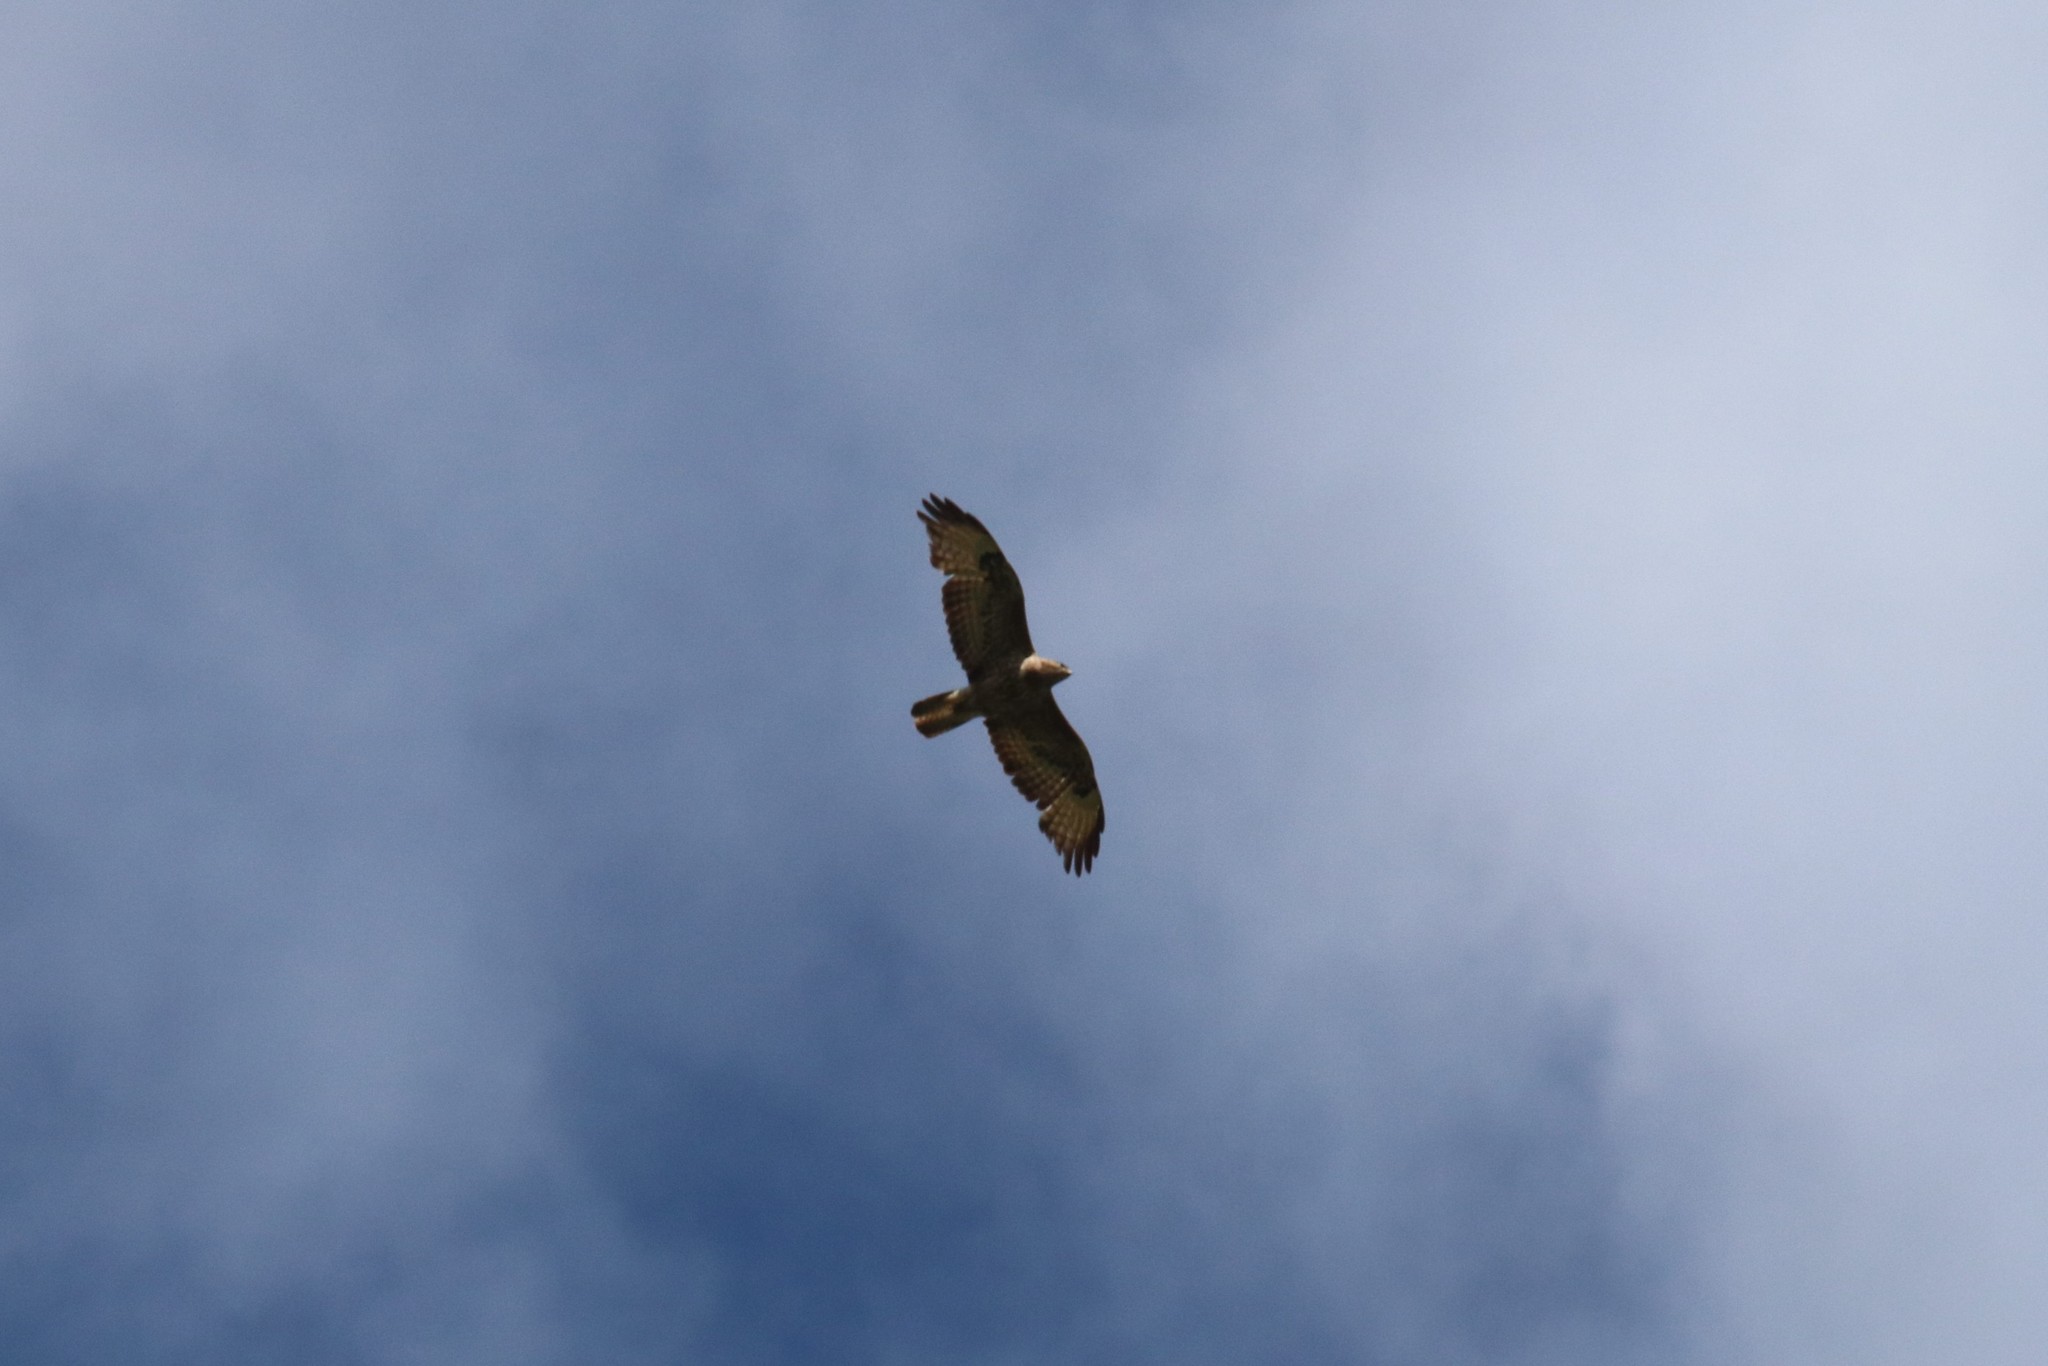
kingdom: Animalia
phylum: Chordata
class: Aves
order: Accipitriformes
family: Accipitridae
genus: Buteo
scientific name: Buteo buteo
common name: Common buzzard
